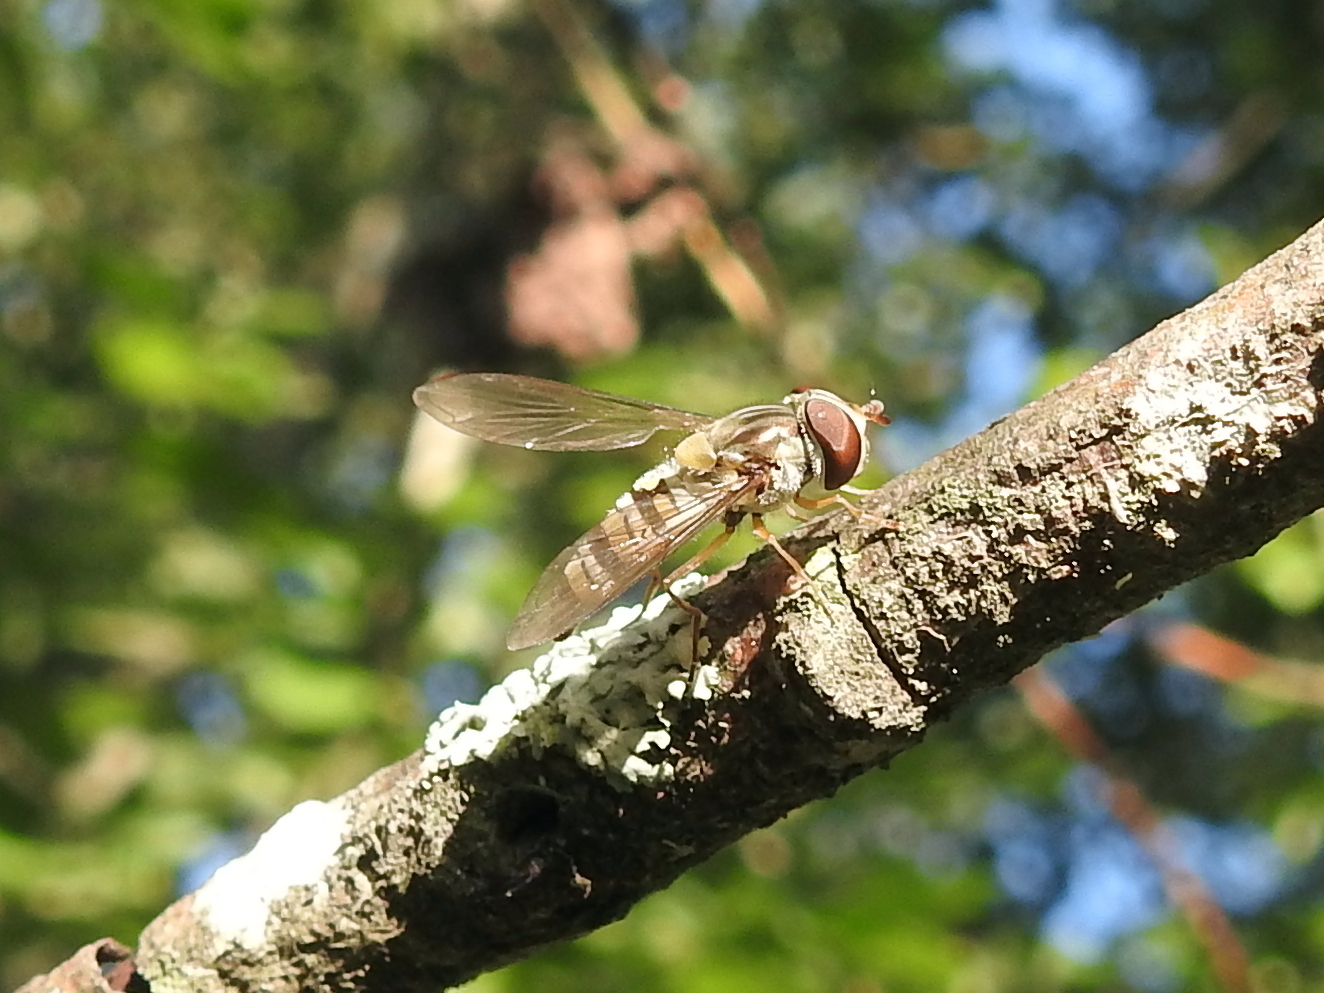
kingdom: Animalia
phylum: Arthropoda
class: Insecta
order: Diptera
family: Syrphidae
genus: Episyrphus
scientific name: Episyrphus balteatus
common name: Marmalade hoverfly
